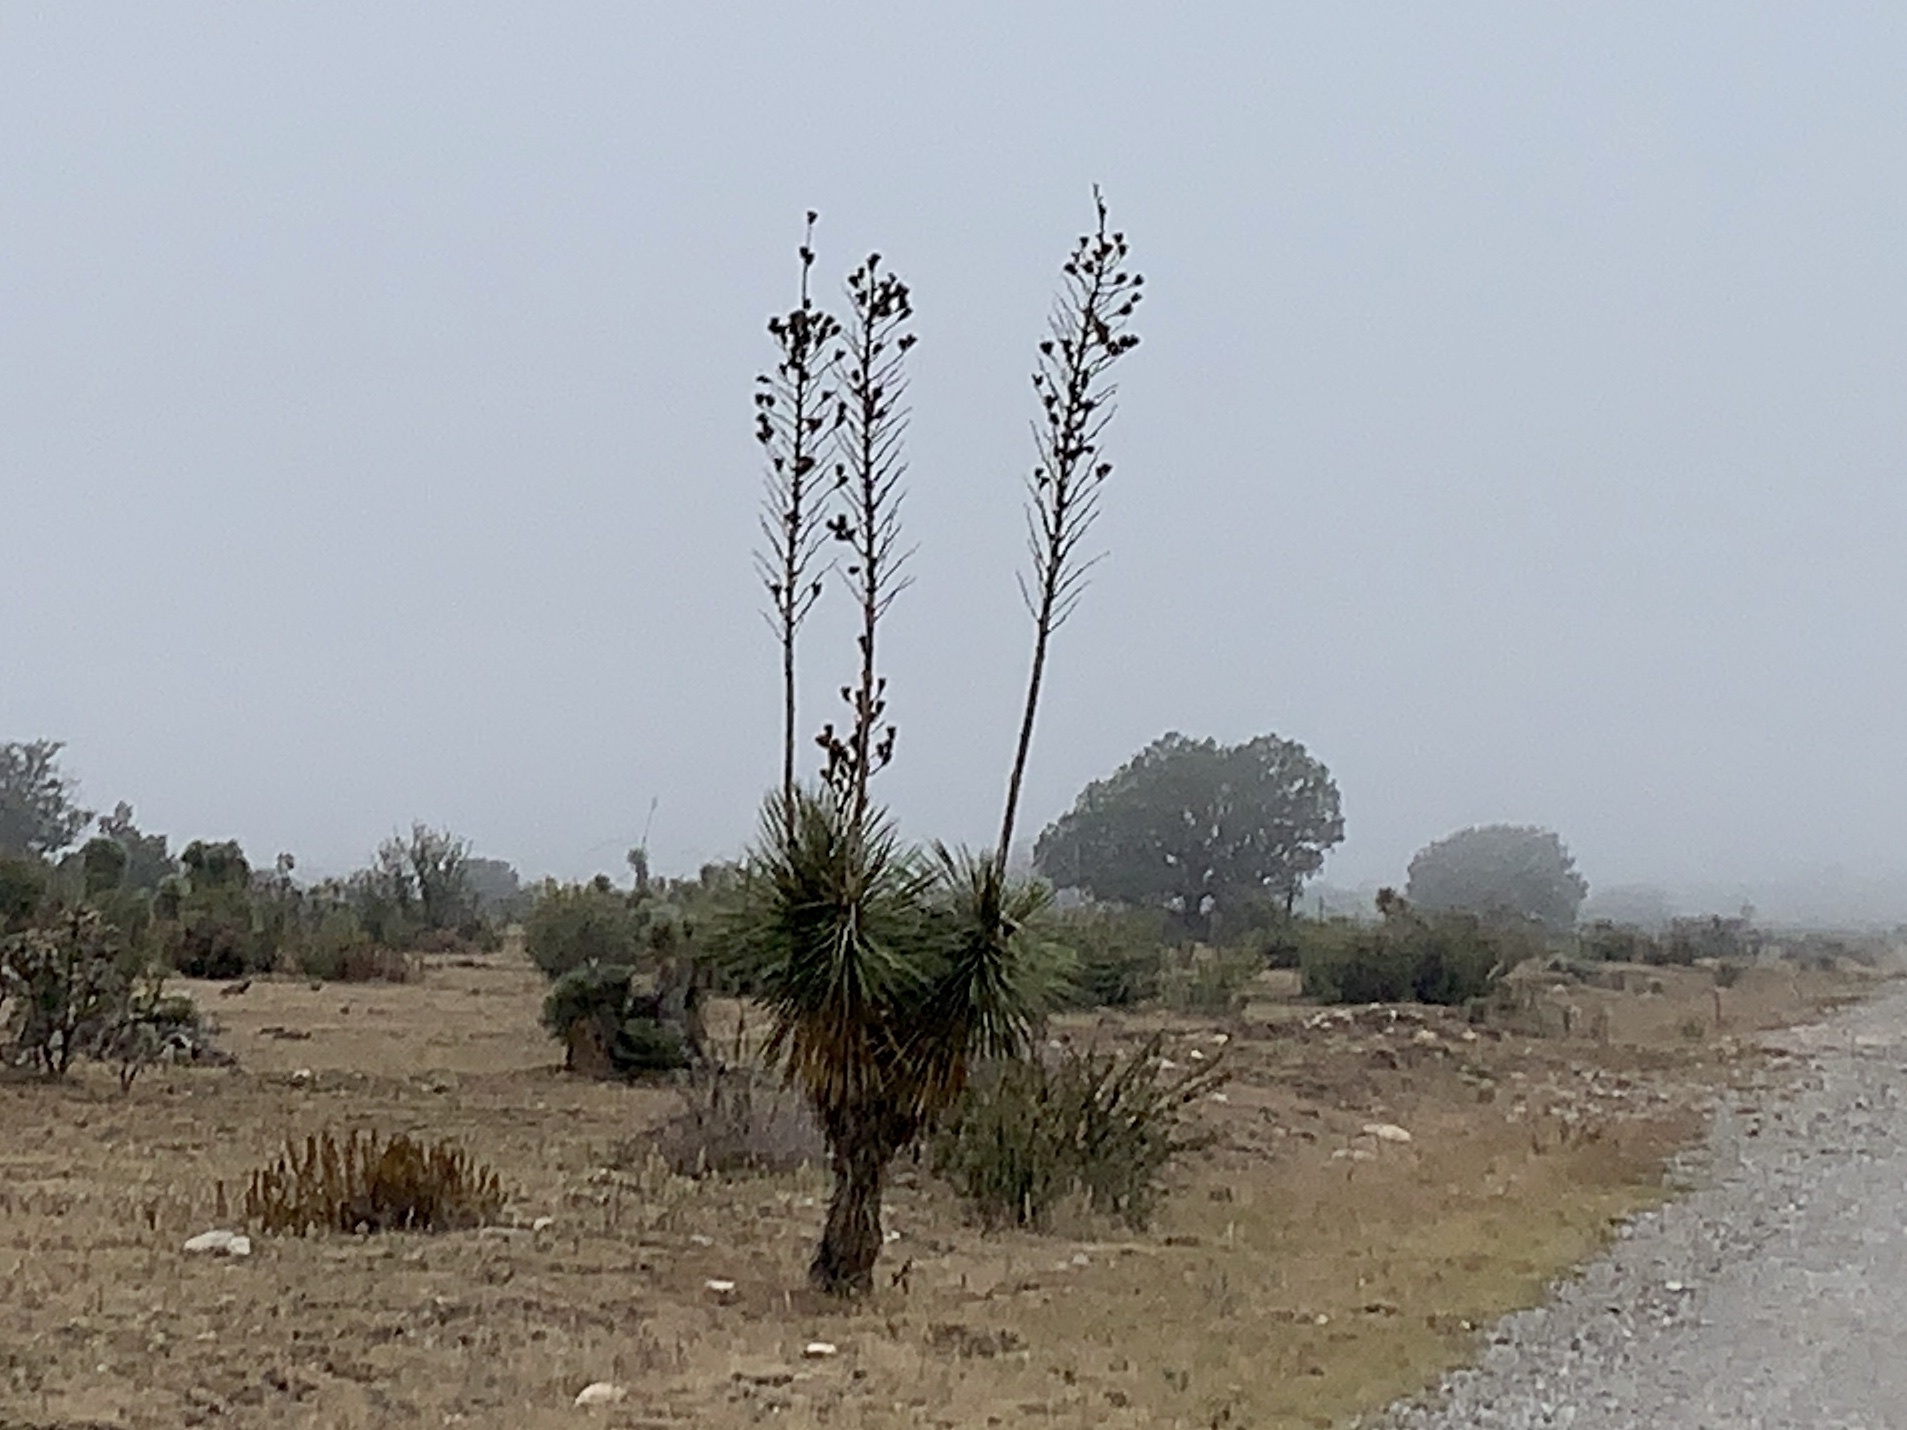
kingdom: Plantae
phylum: Tracheophyta
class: Liliopsida
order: Asparagales
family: Asparagaceae
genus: Yucca
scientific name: Yucca elata
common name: Palmella
